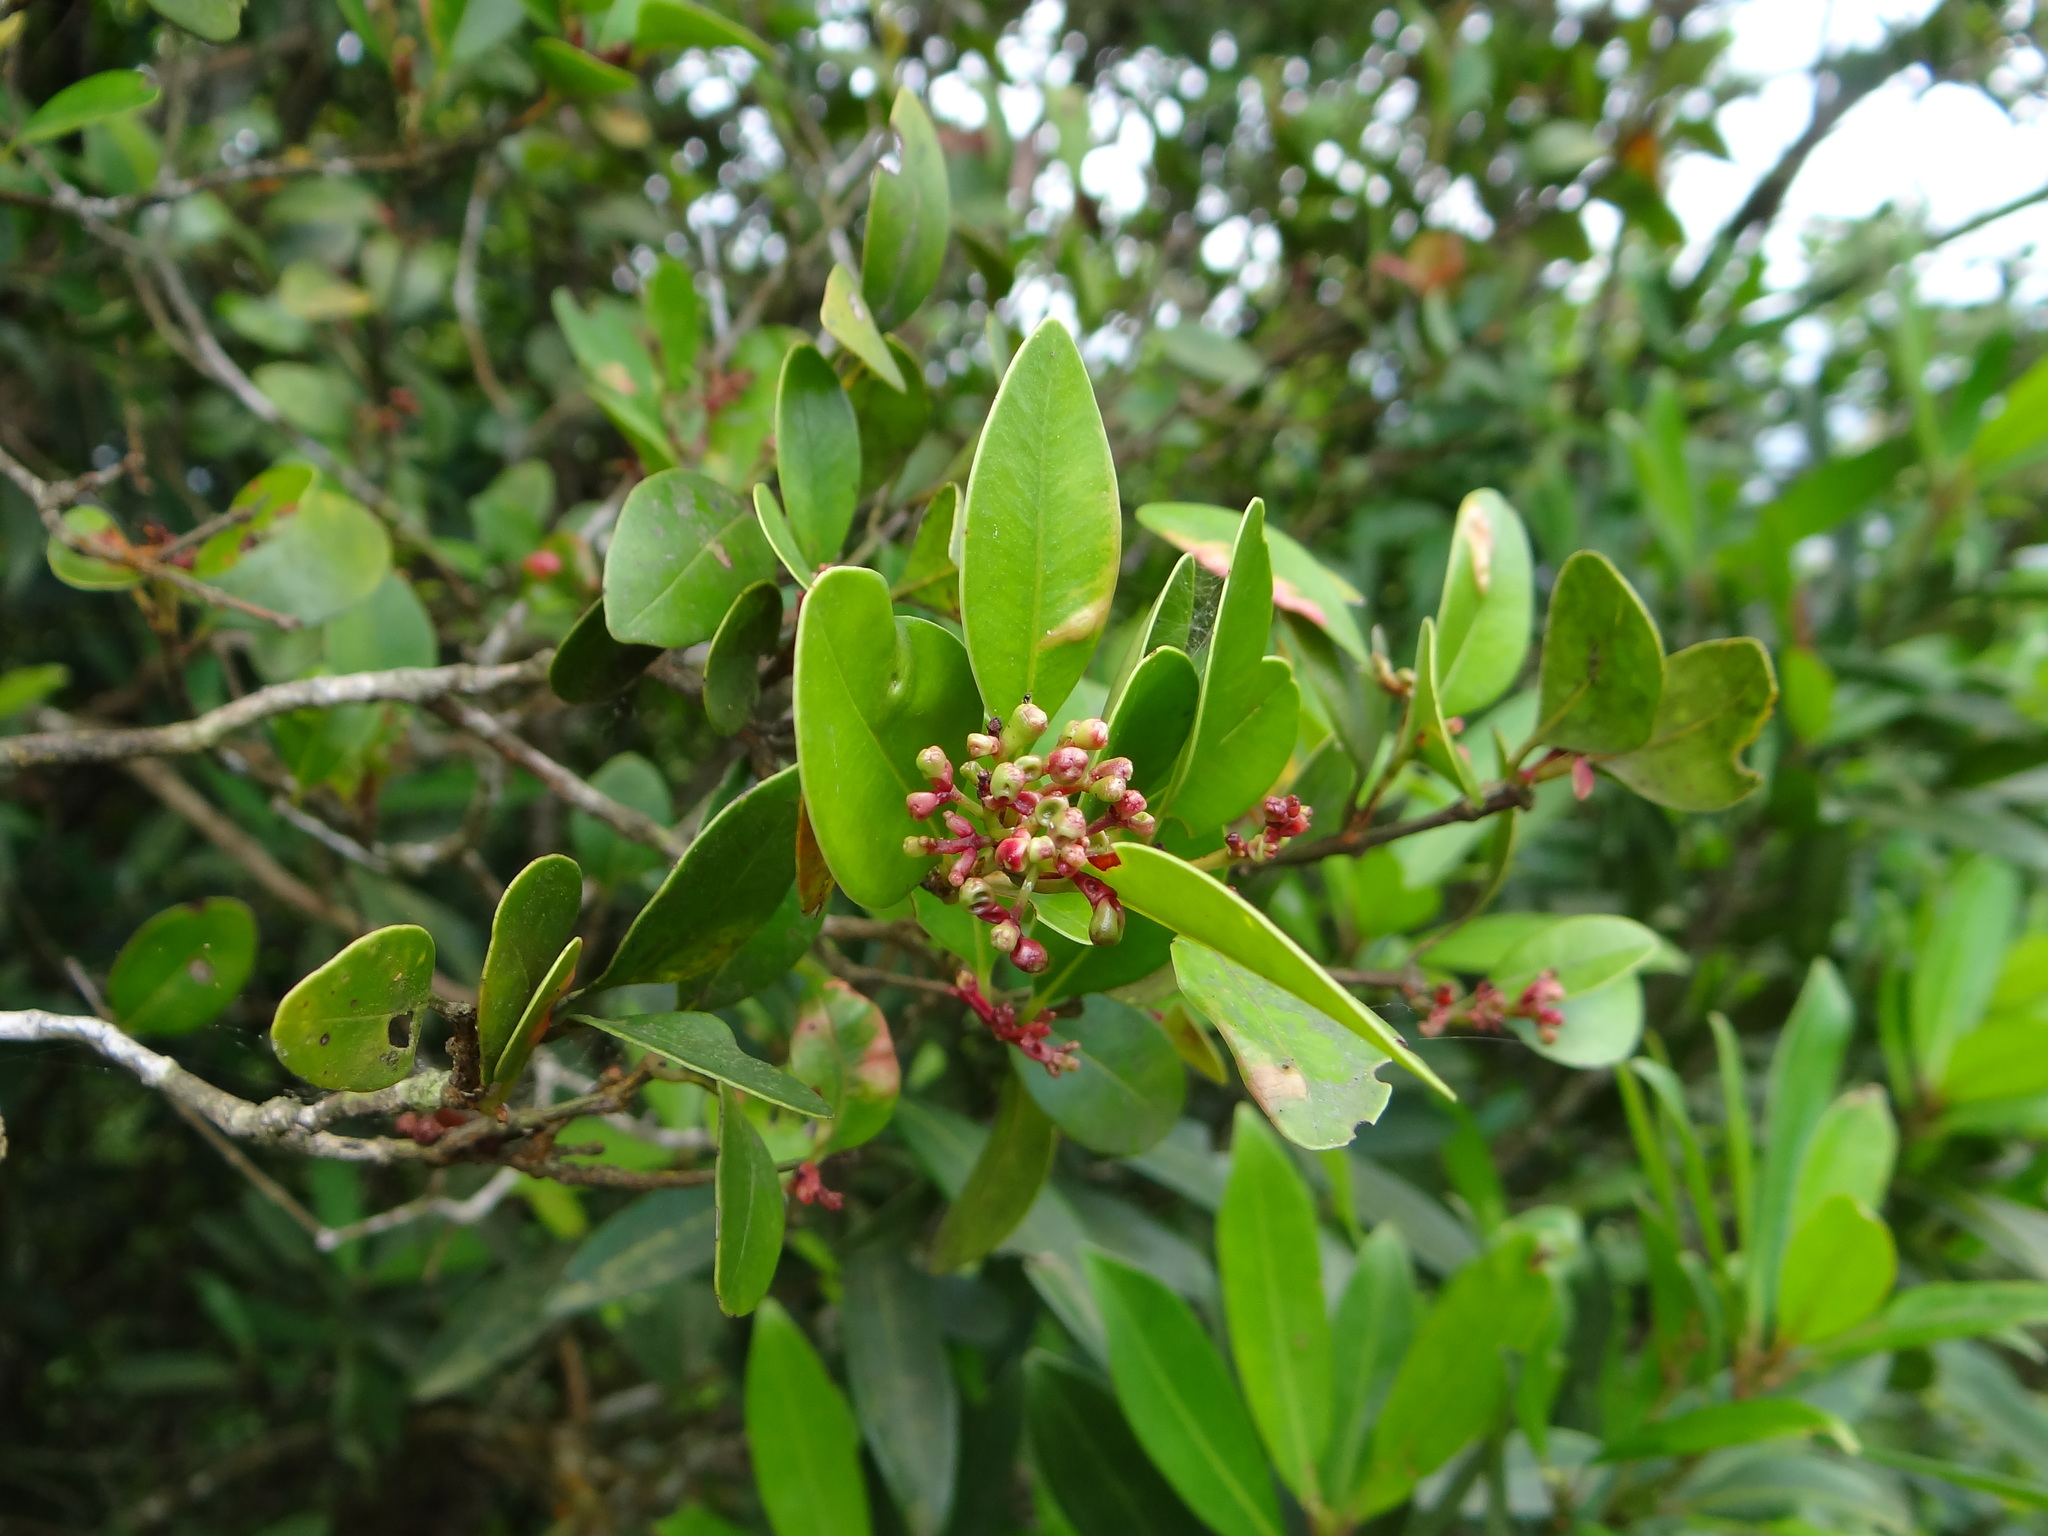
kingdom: Plantae
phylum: Tracheophyta
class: Magnoliopsida
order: Myrtales
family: Myrtaceae
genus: Syzygium
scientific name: Syzygium elliptifolium
